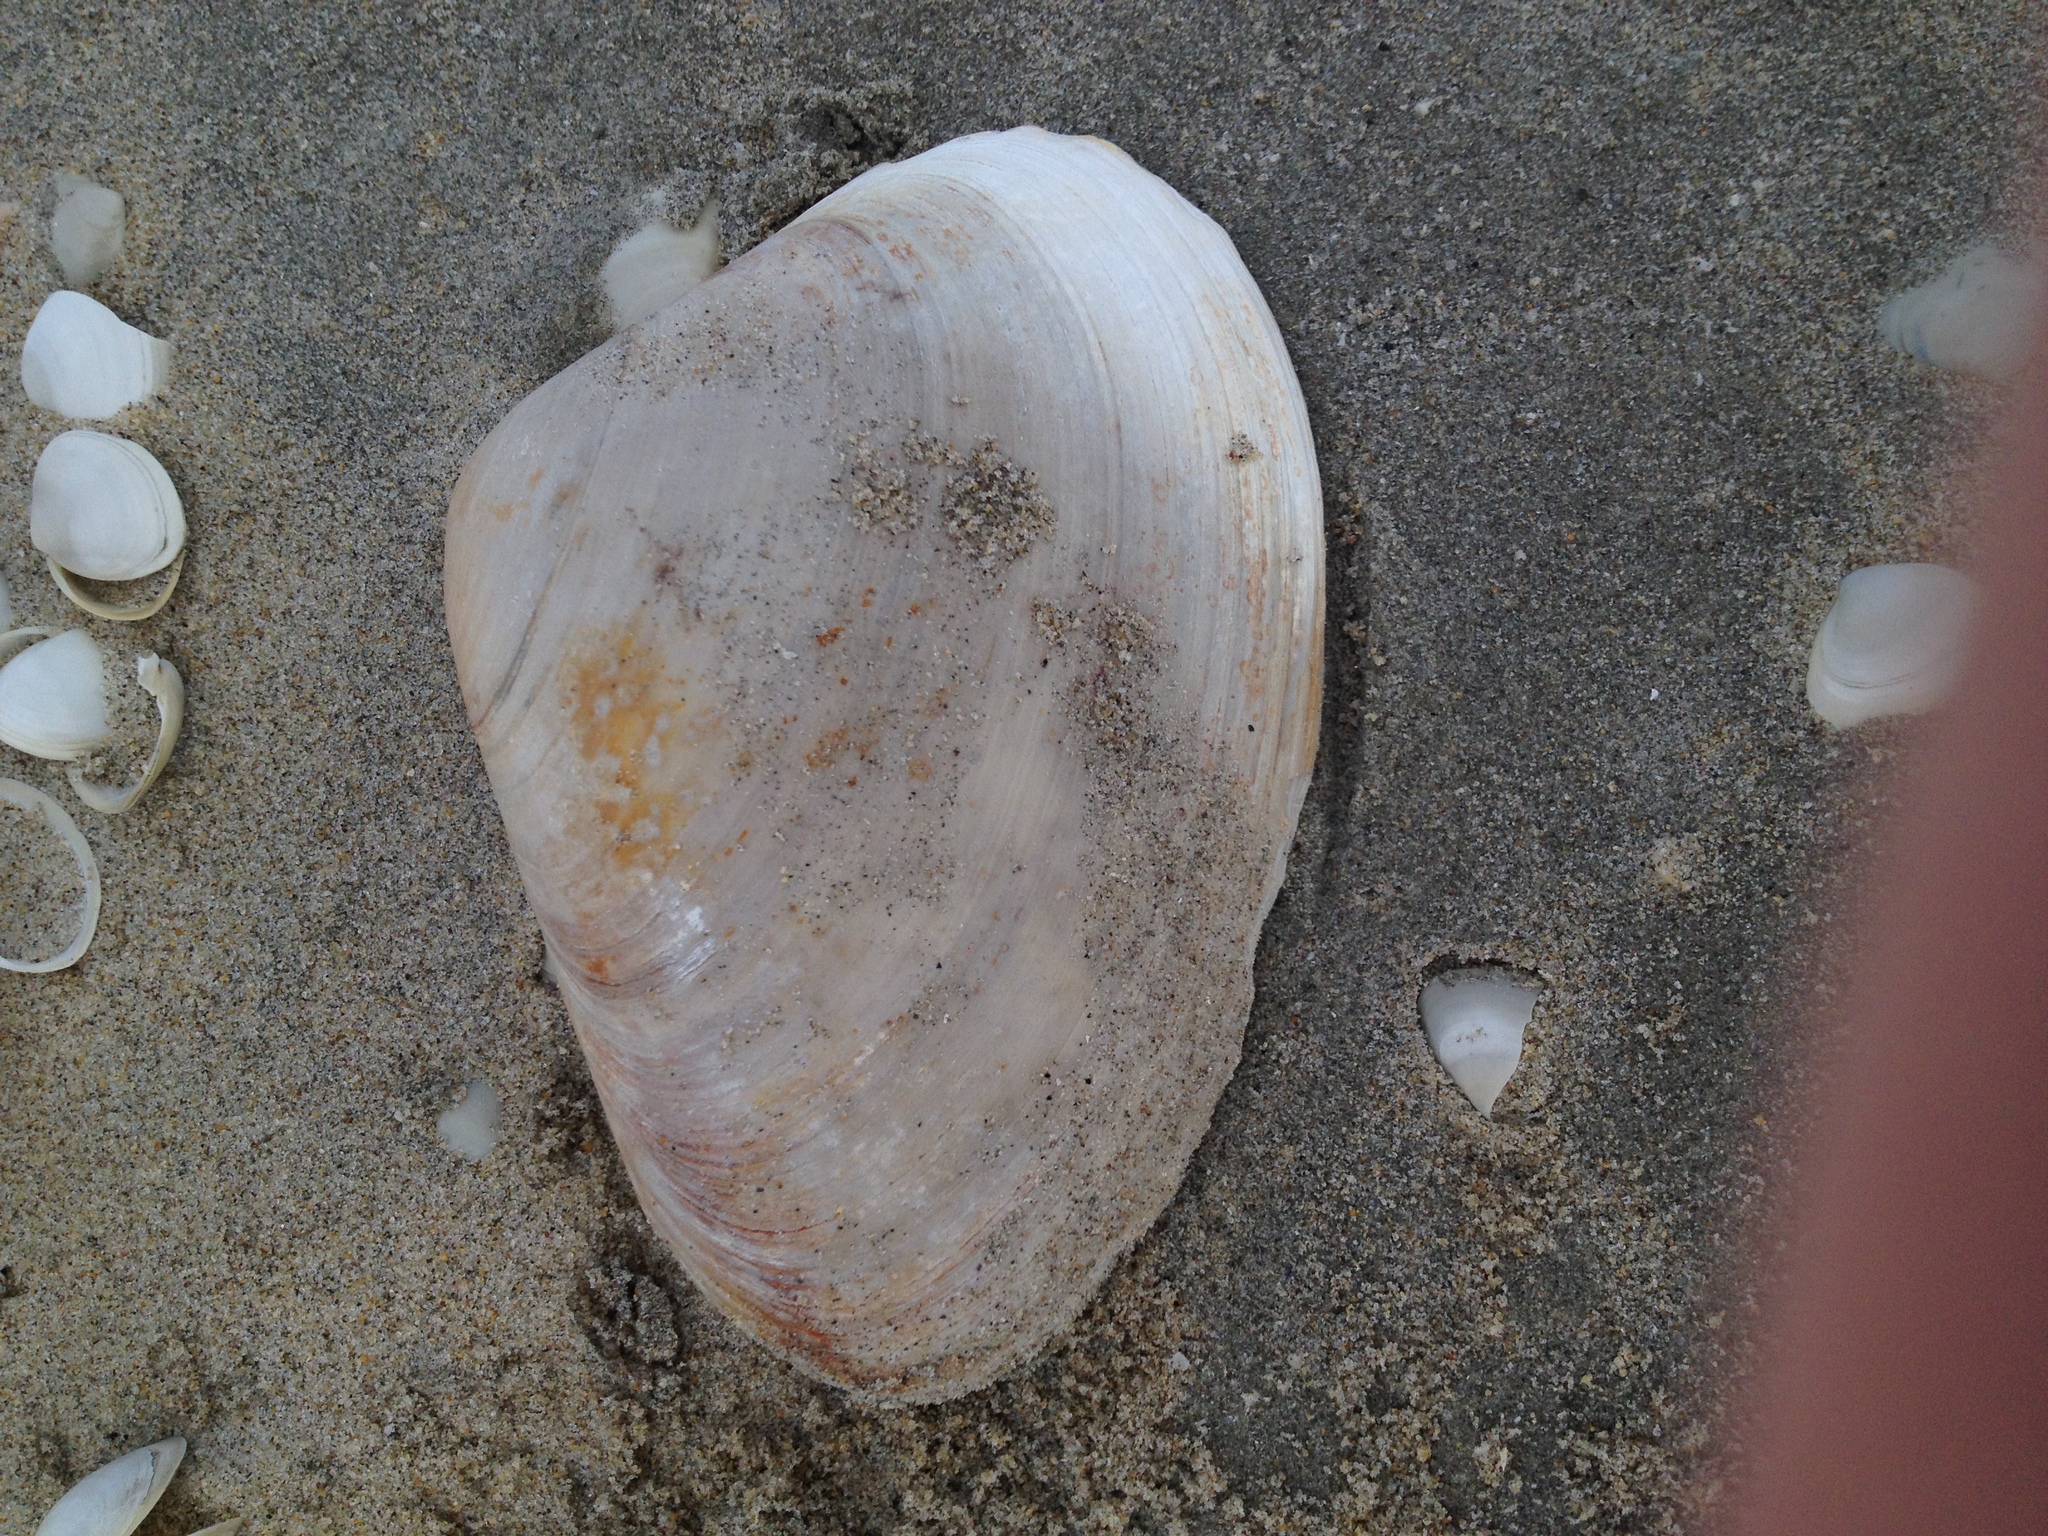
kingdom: Animalia
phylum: Mollusca
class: Bivalvia
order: Venerida
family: Mactridae
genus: Spisula
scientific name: Spisula solidissima
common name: Atlantic surf clam
